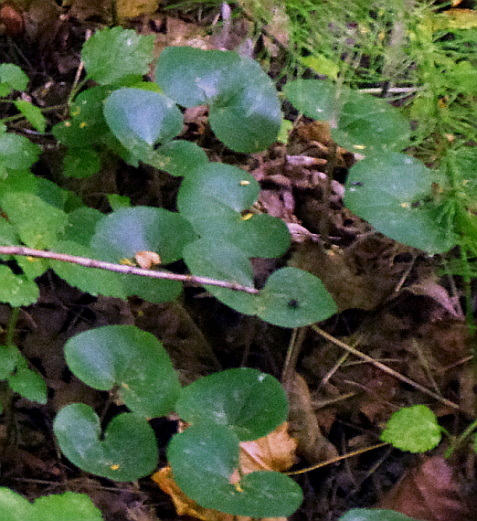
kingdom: Plantae
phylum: Tracheophyta
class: Magnoliopsida
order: Piperales
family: Aristolochiaceae
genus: Asarum
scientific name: Asarum europaeum
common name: Asarabacca
